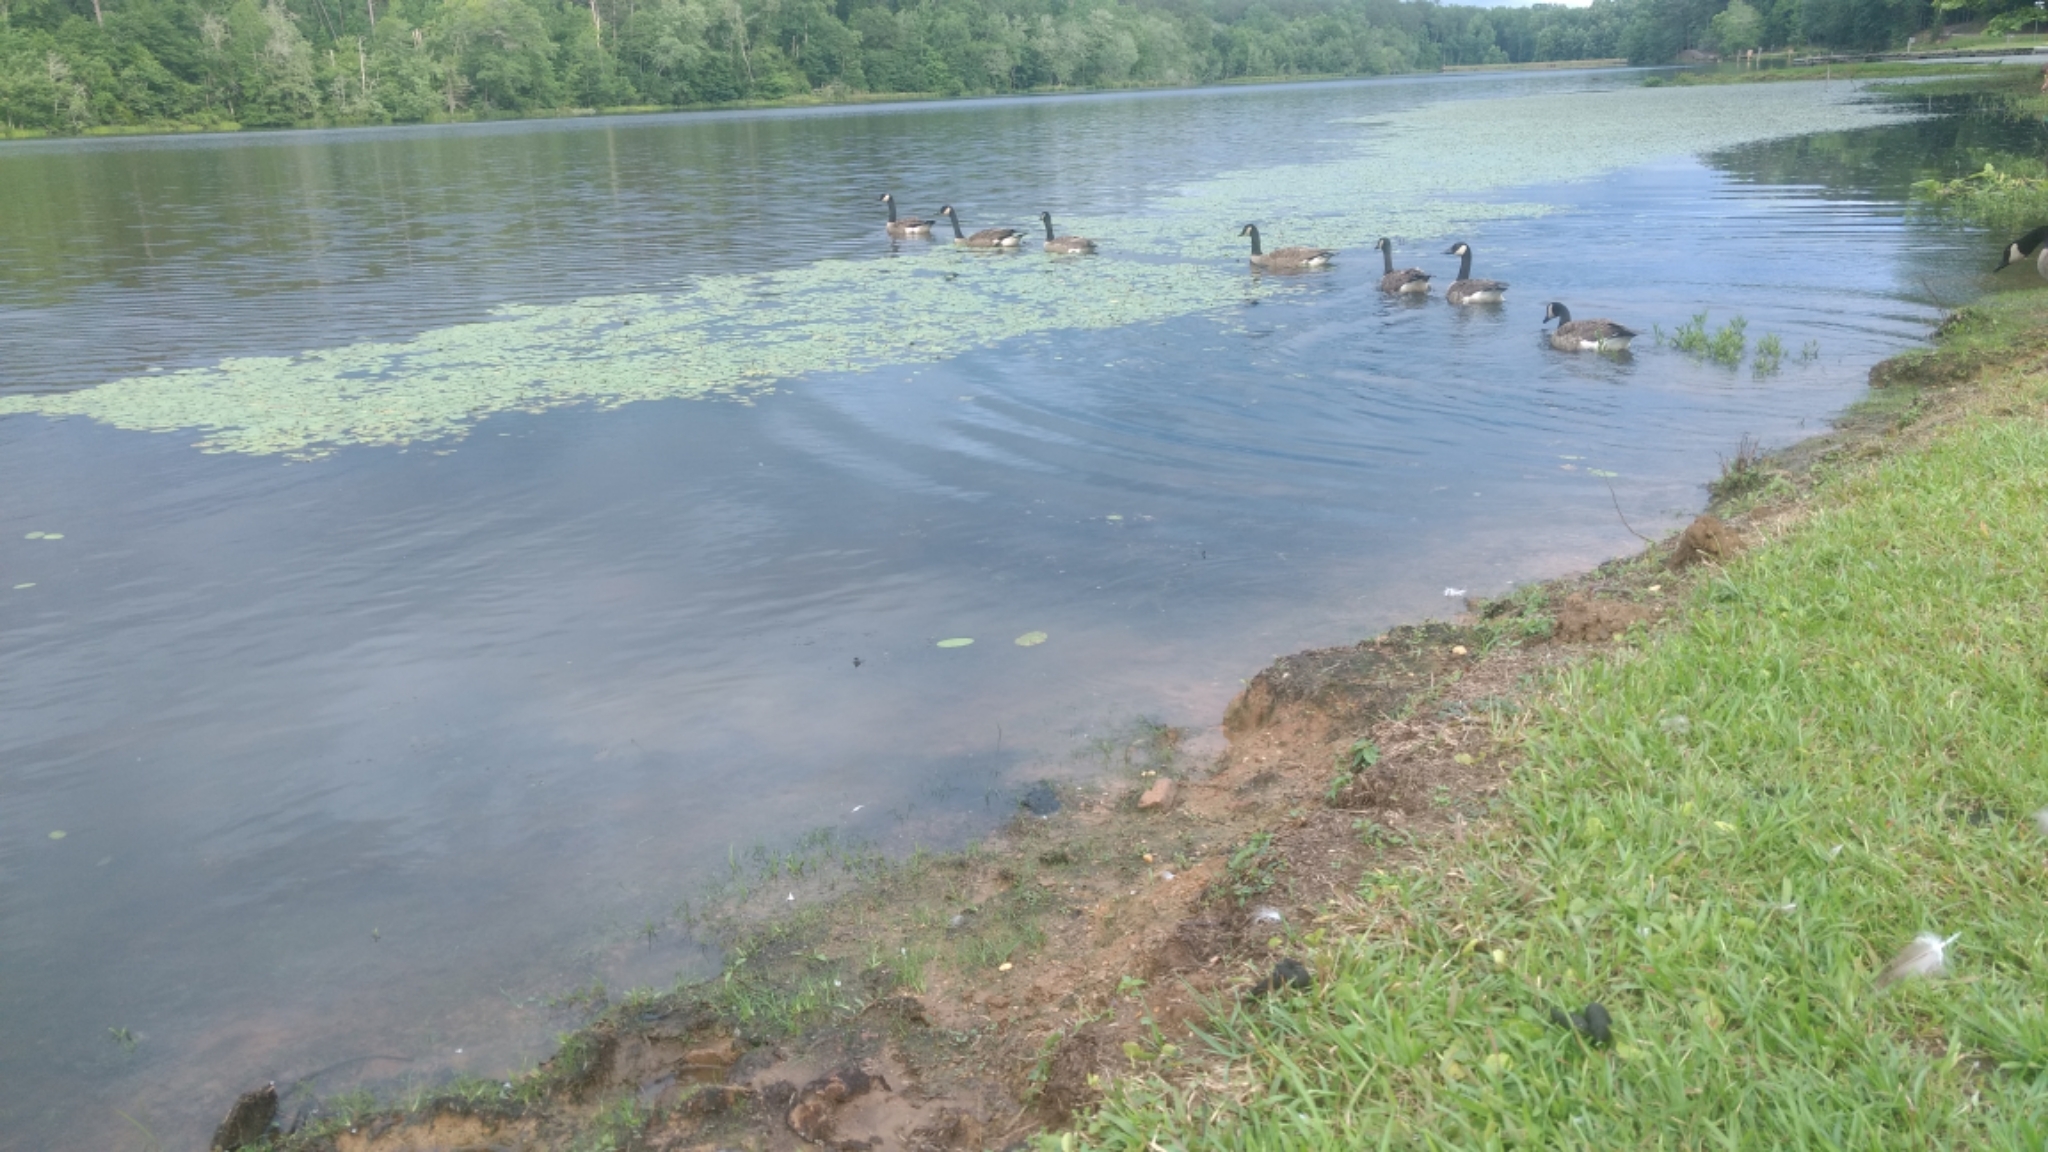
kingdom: Animalia
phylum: Chordata
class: Aves
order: Anseriformes
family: Anatidae
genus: Branta
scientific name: Branta canadensis
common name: Canada goose
